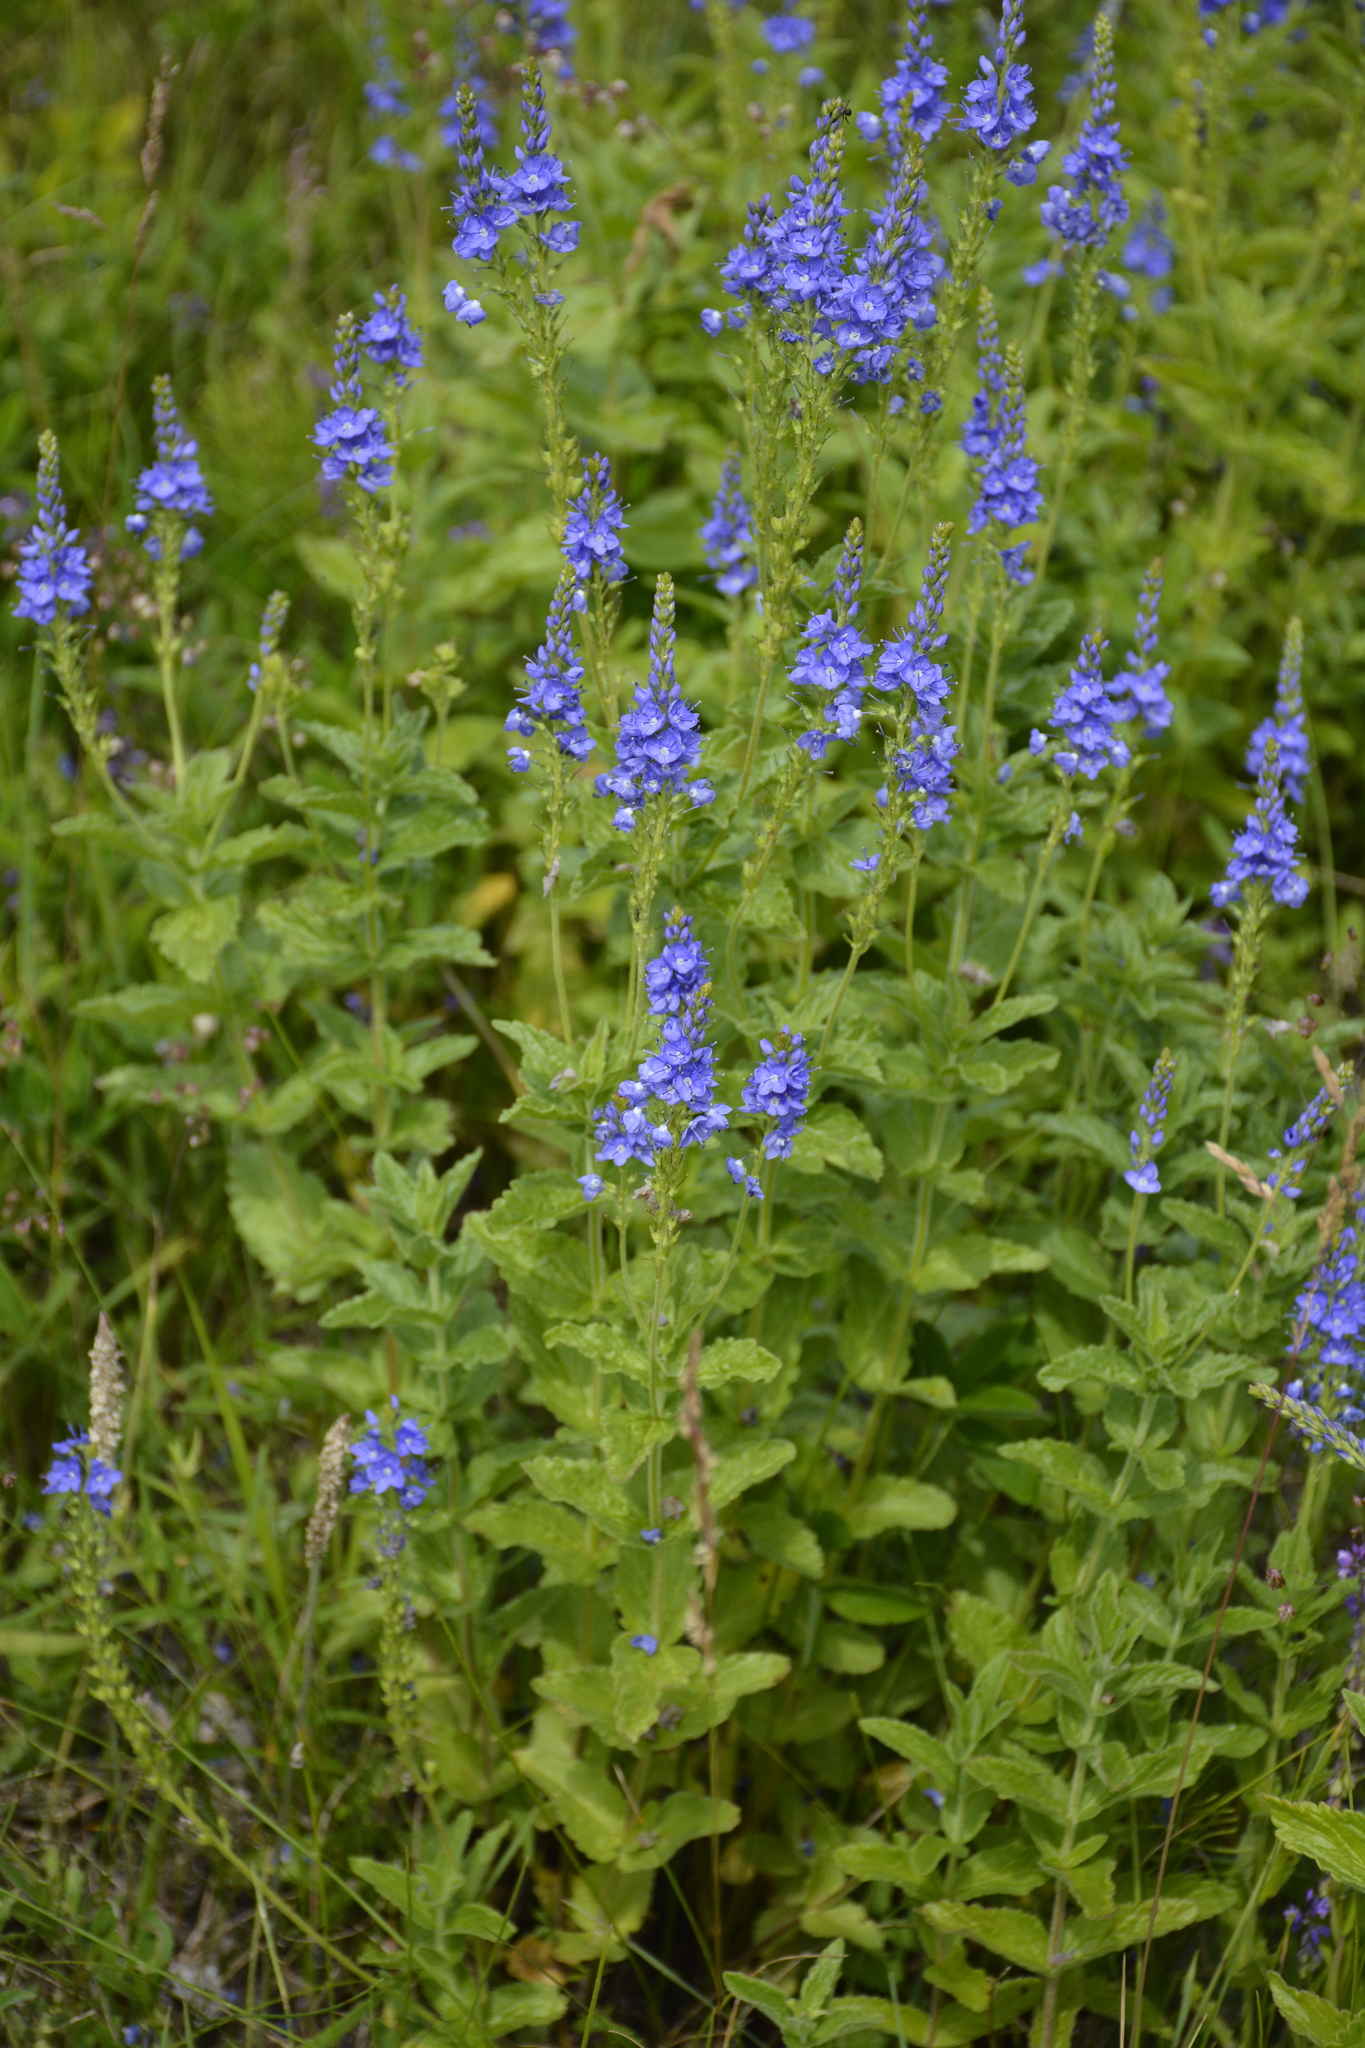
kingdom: Plantae
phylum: Tracheophyta
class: Magnoliopsida
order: Lamiales
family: Plantaginaceae
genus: Veronica
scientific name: Veronica teucrium
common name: Large speedwell
